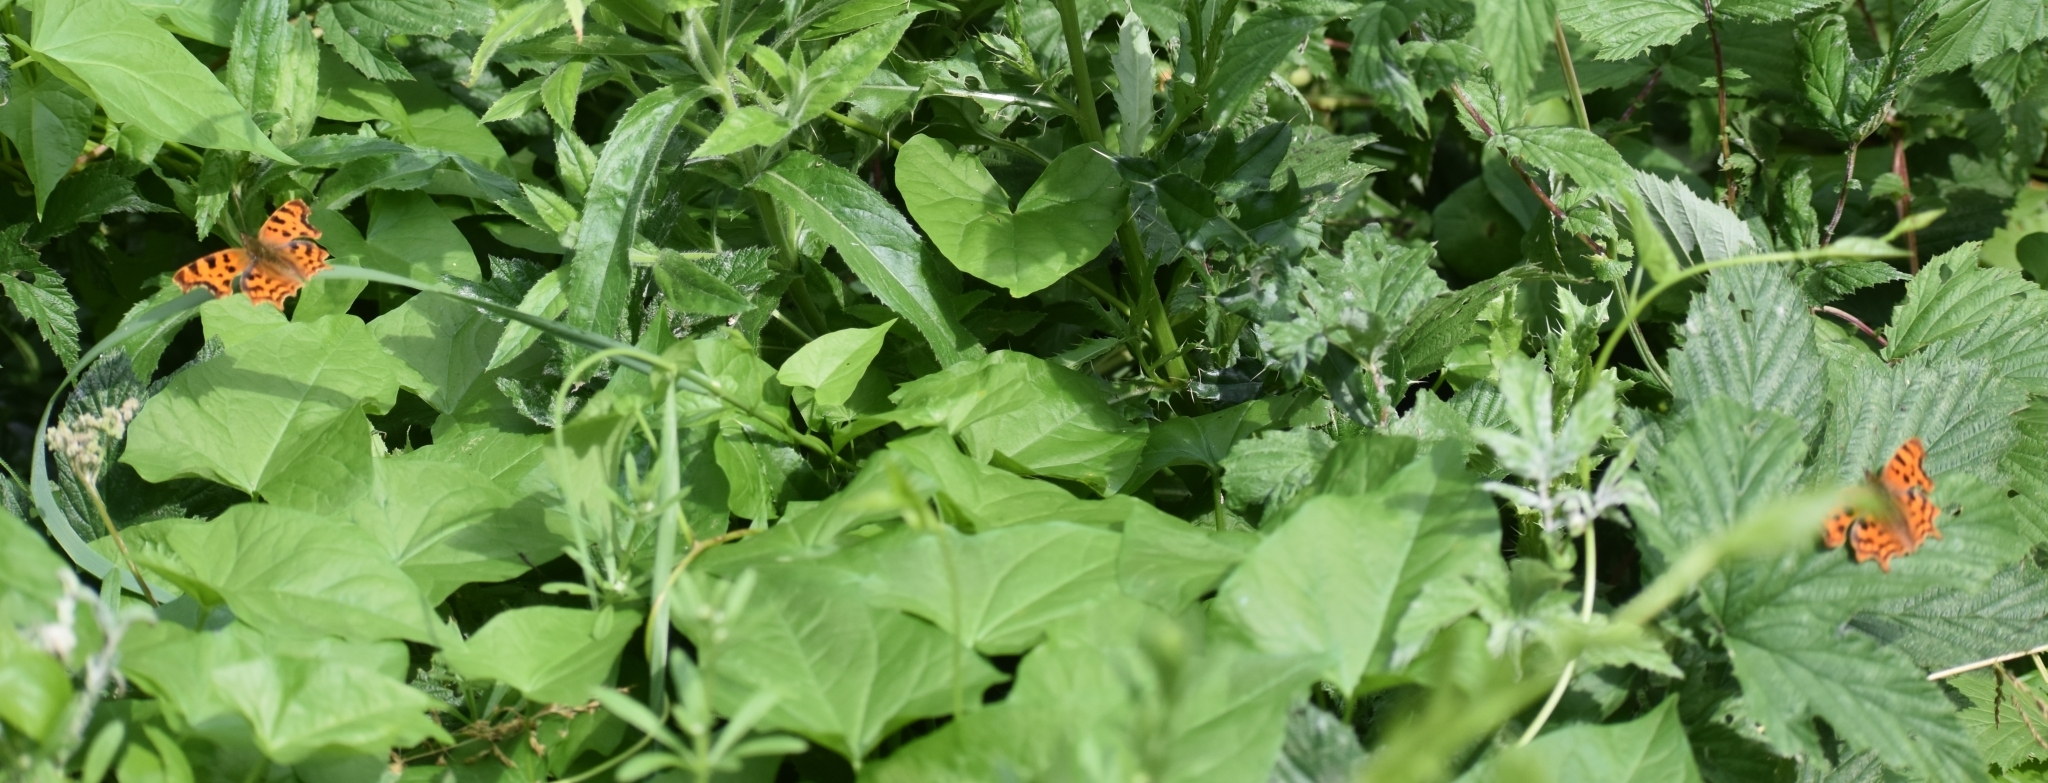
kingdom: Animalia
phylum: Arthropoda
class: Insecta
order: Lepidoptera
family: Nymphalidae
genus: Polygonia
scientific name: Polygonia c-album
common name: Comma
